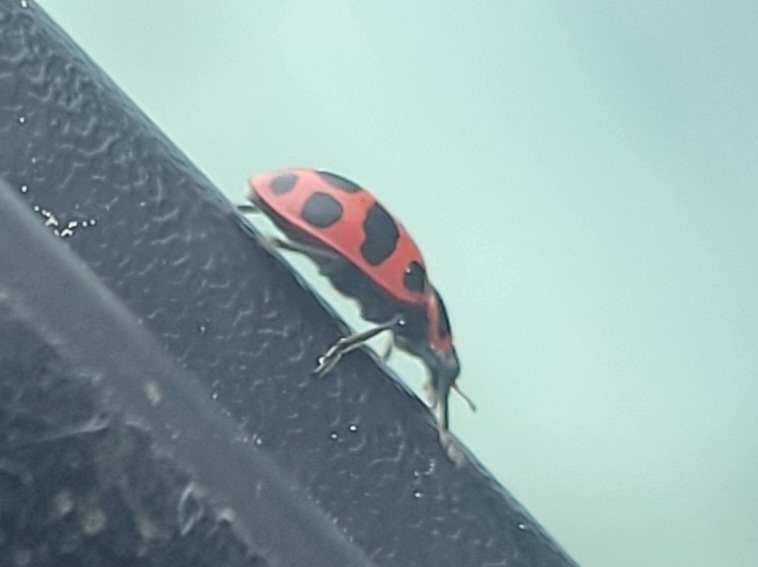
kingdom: Animalia
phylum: Arthropoda
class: Insecta
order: Coleoptera
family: Coccinellidae
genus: Coleomegilla
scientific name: Coleomegilla maculata
